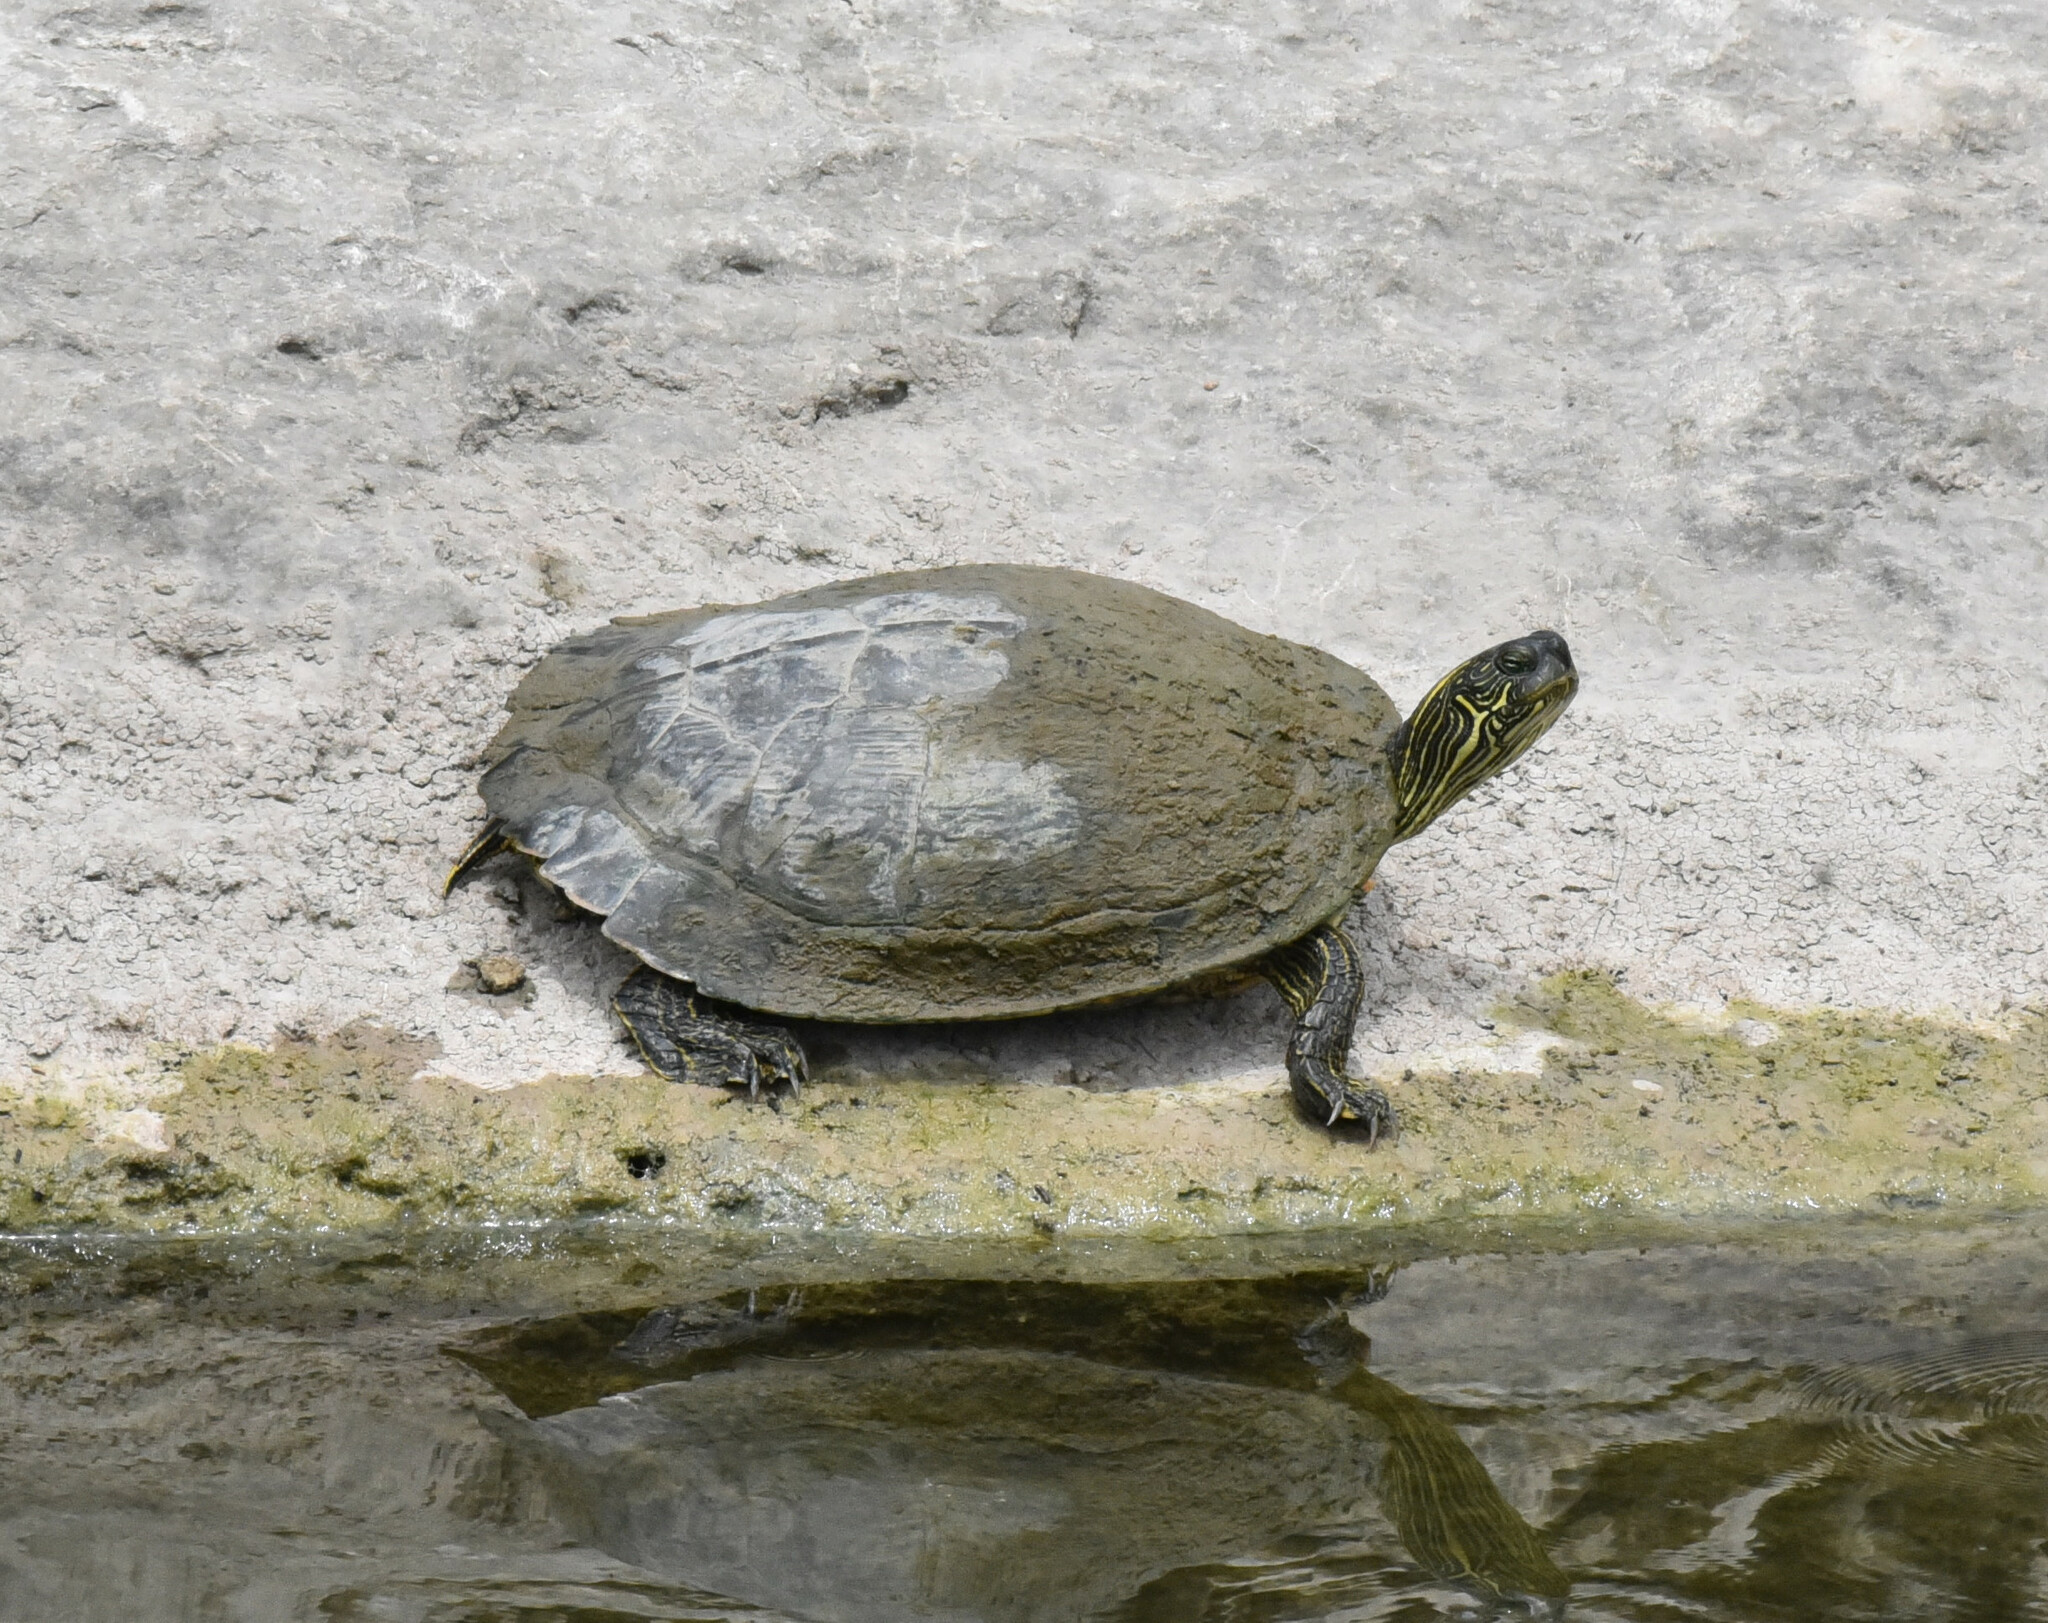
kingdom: Animalia
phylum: Chordata
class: Testudines
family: Emydidae
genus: Pseudemys
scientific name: Pseudemys texana
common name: Texas river cooter
